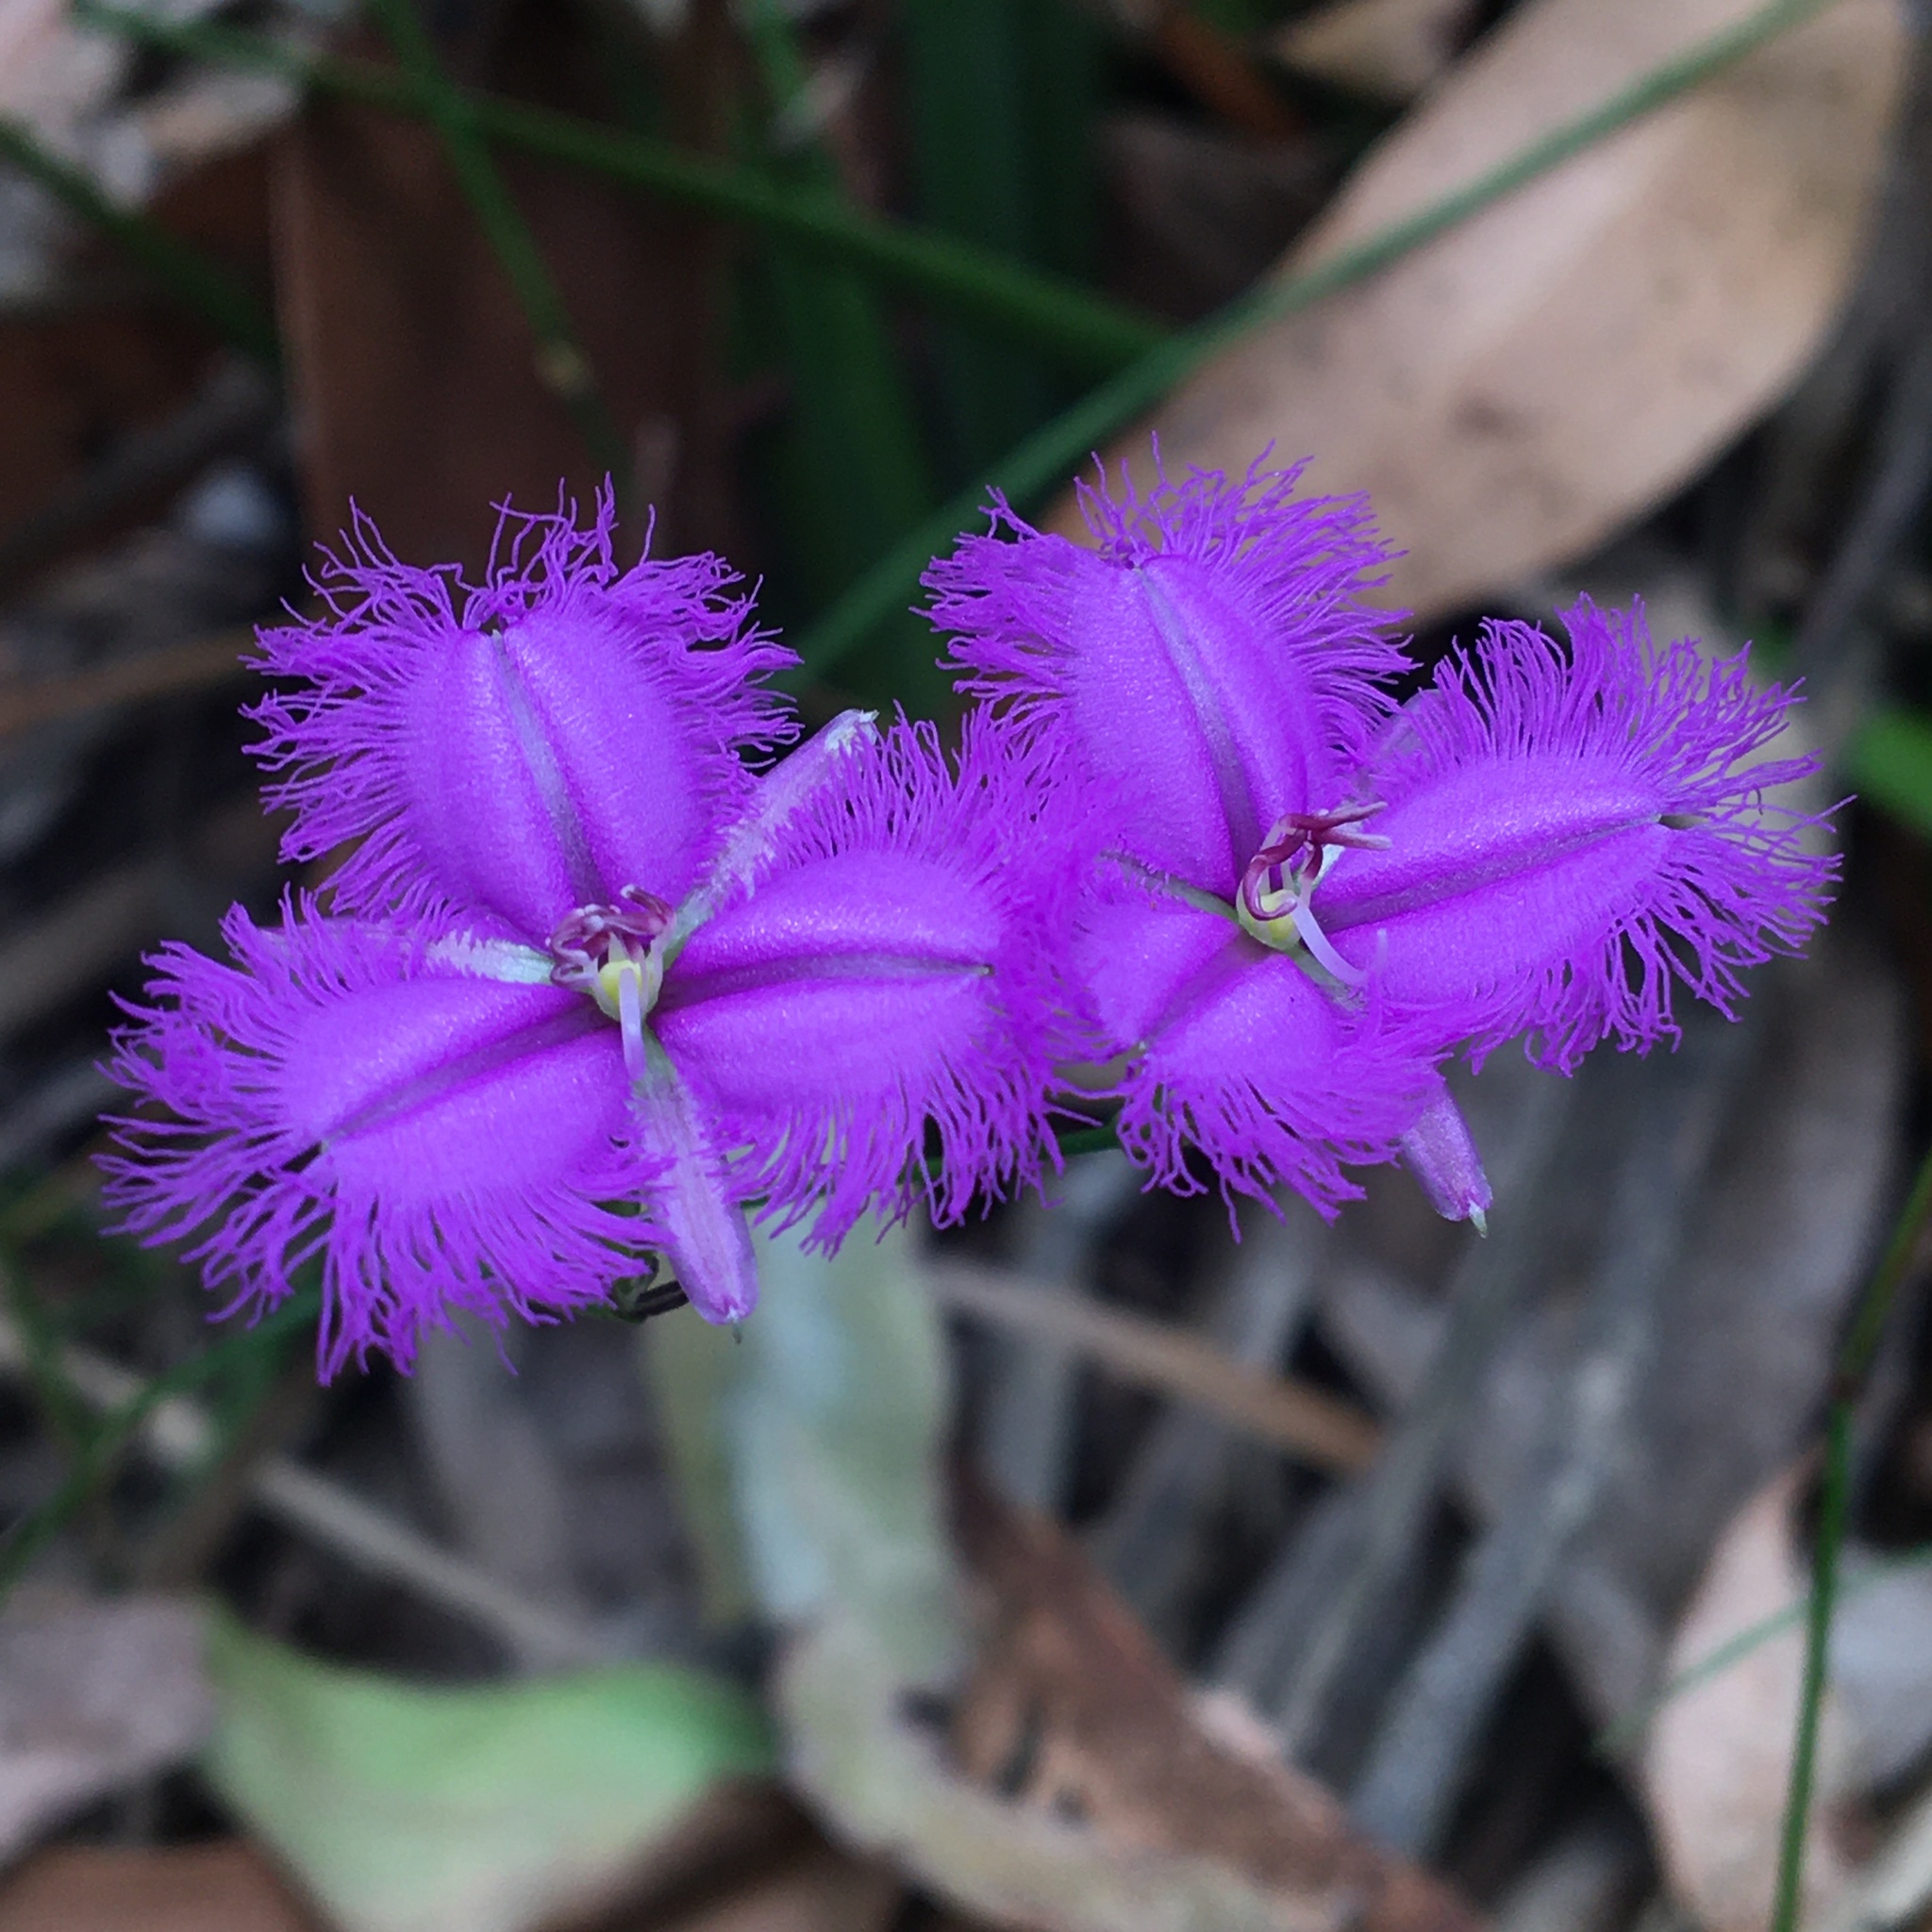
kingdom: Plantae
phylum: Tracheophyta
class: Liliopsida
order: Asparagales
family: Asparagaceae
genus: Thysanotus
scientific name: Thysanotus tuberosus
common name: Common fringed-lily
